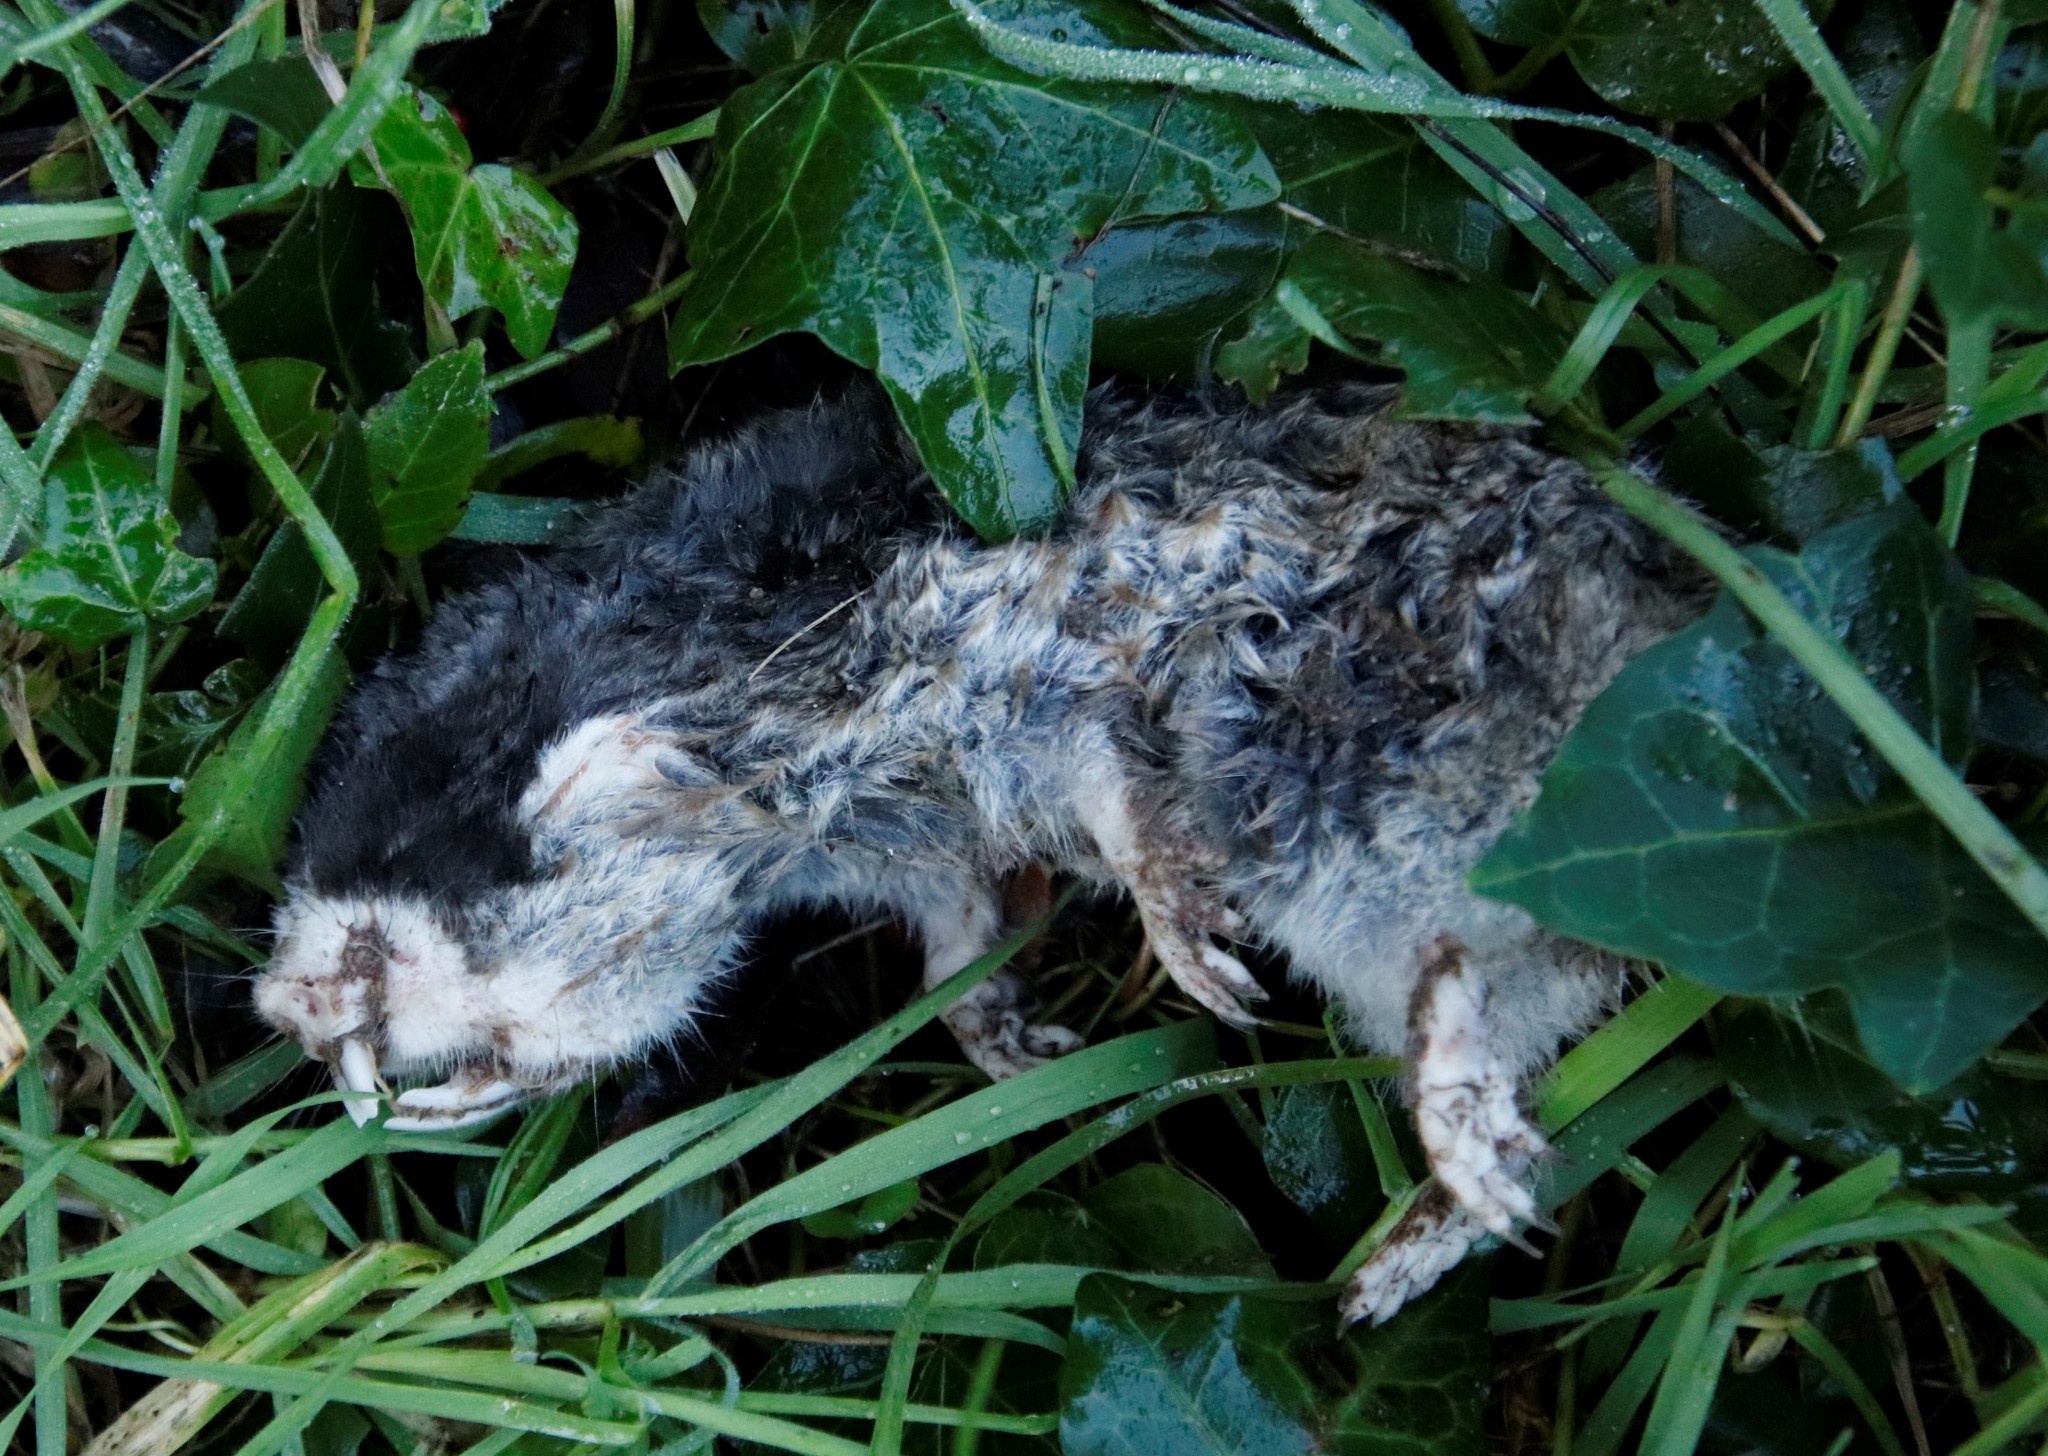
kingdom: Animalia
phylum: Chordata
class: Mammalia
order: Rodentia
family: Bathyergidae
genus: Georychus
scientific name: Georychus capensis
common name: Cape mole-rat
